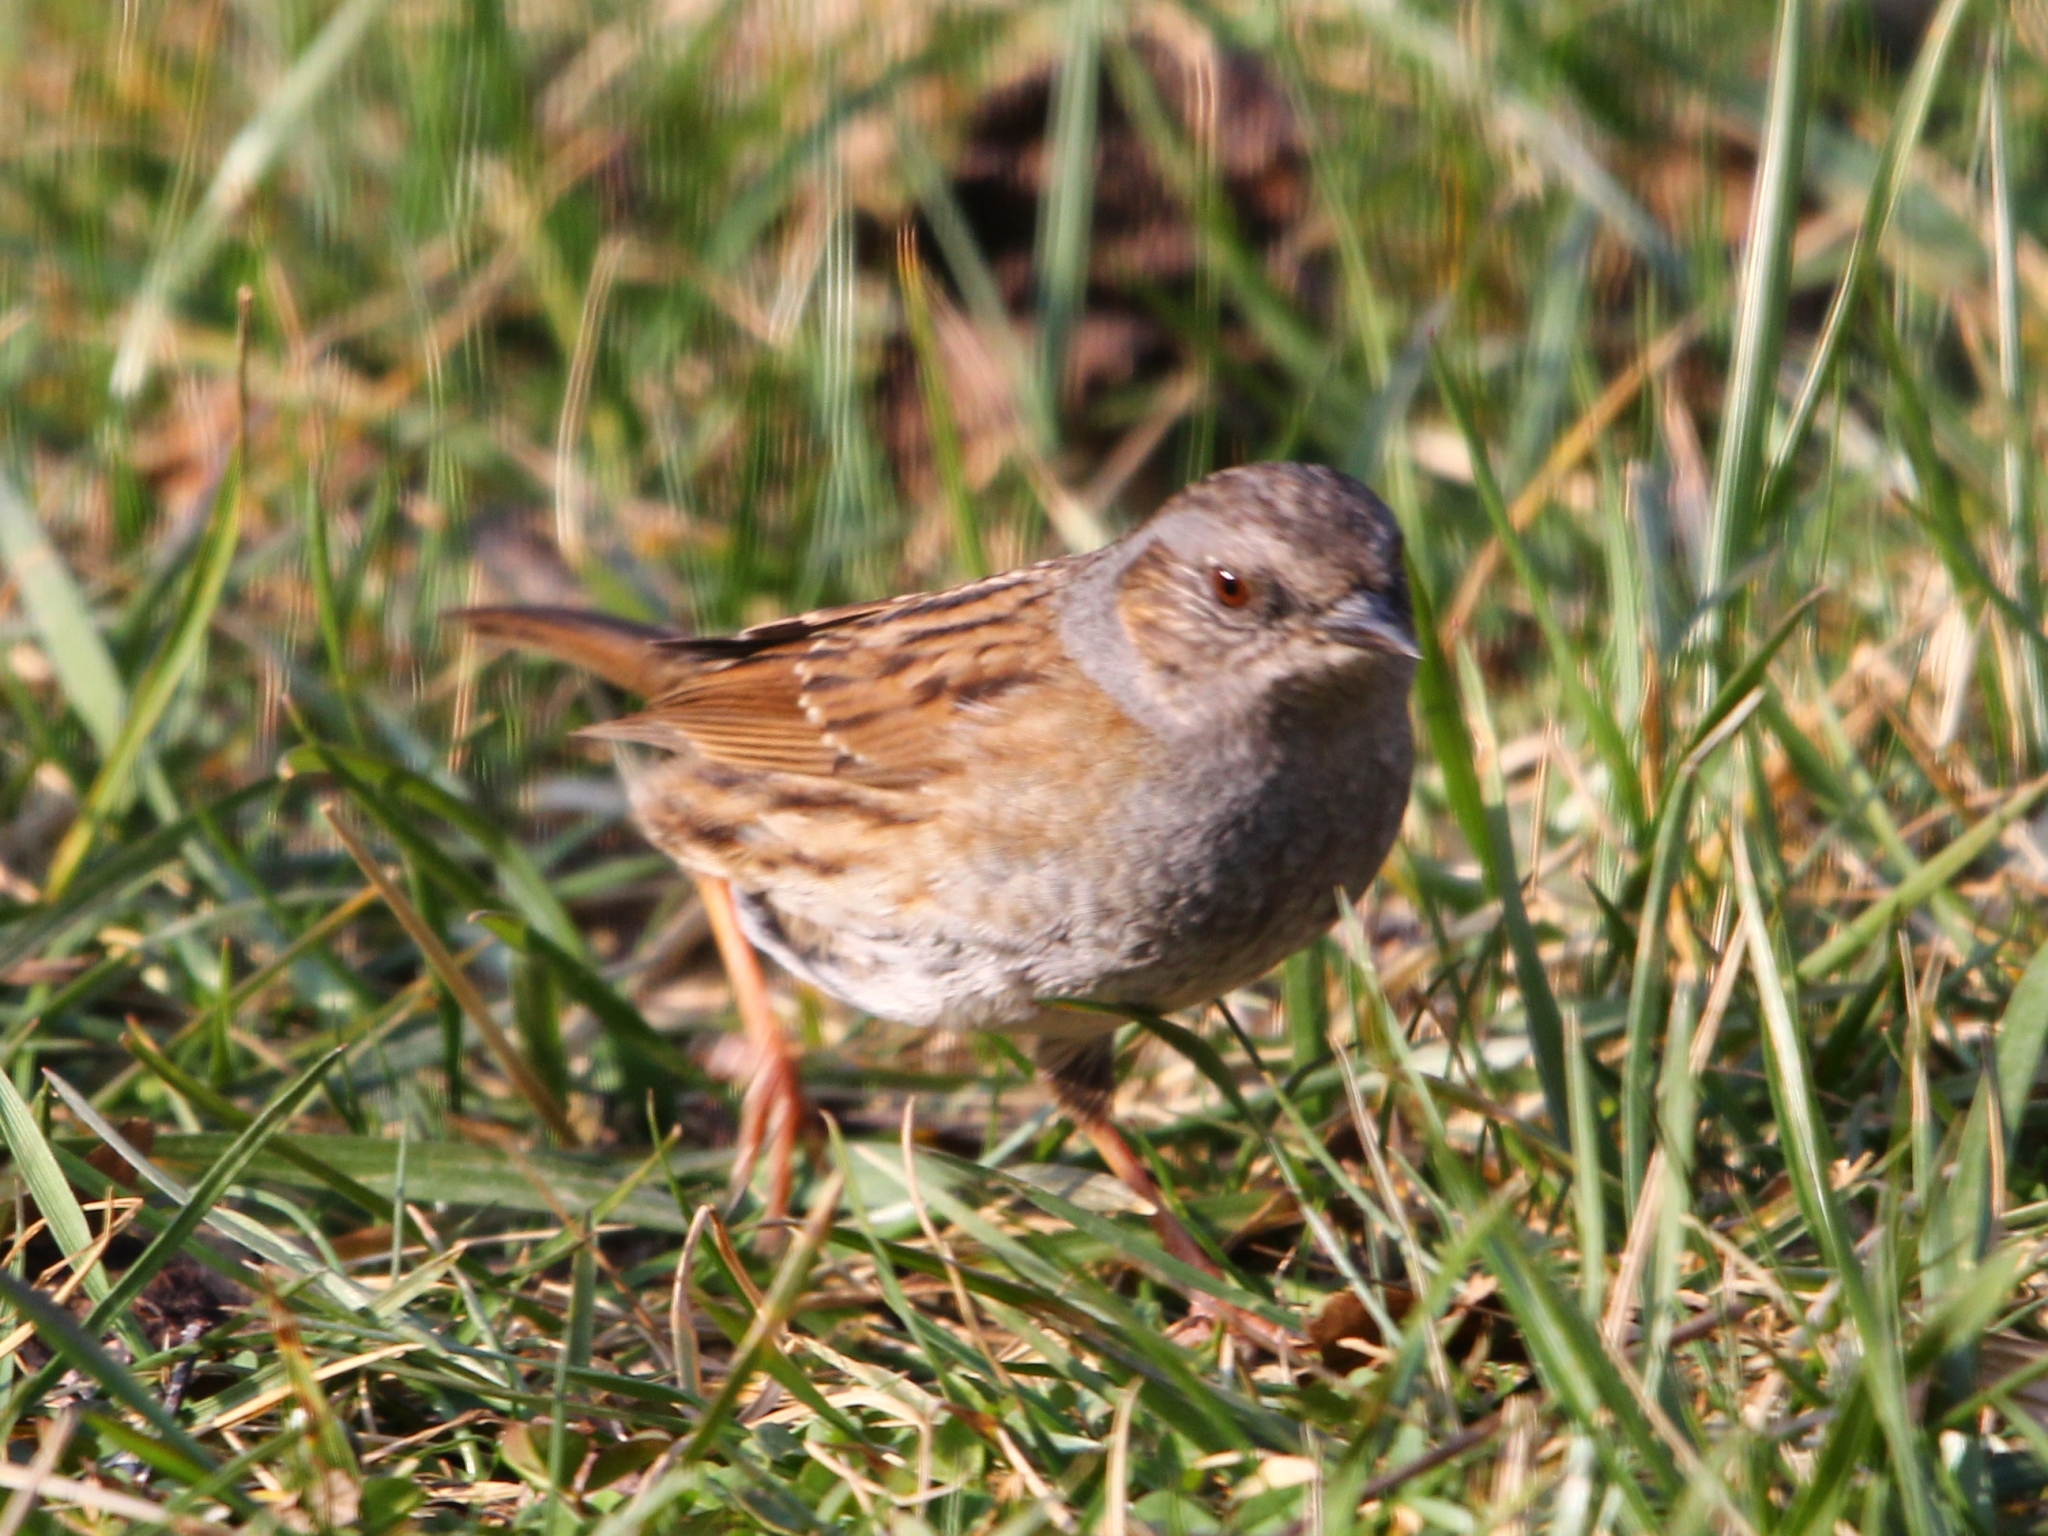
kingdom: Animalia
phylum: Chordata
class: Aves
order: Passeriformes
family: Prunellidae
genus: Prunella
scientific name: Prunella modularis
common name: Dunnock
